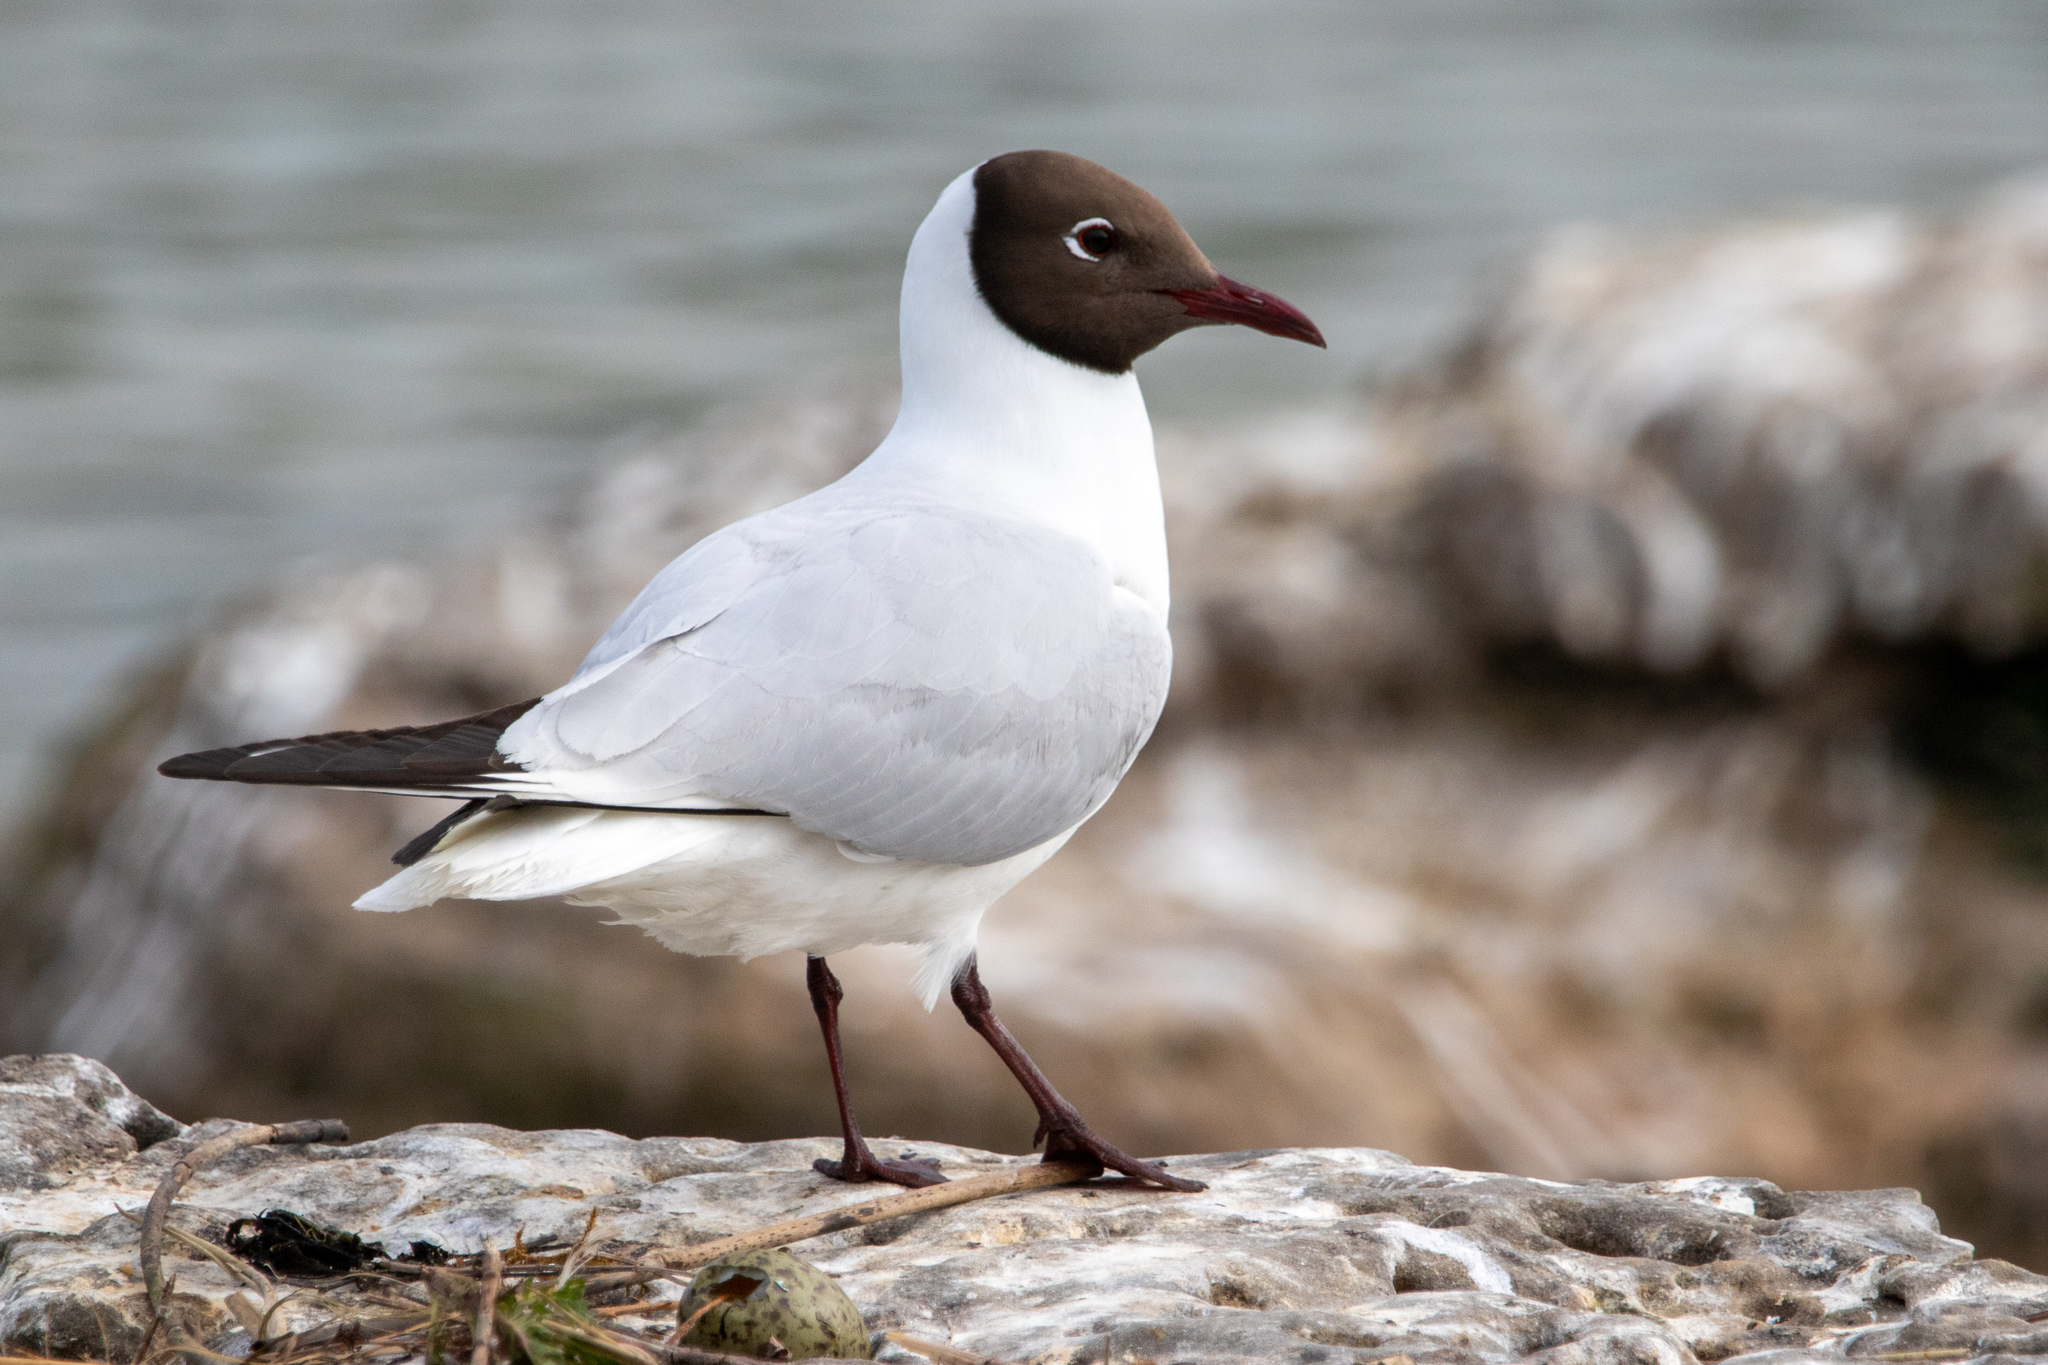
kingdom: Animalia
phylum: Chordata
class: Aves
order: Charadriiformes
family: Laridae
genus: Chroicocephalus
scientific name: Chroicocephalus ridibundus
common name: Black-headed gull
